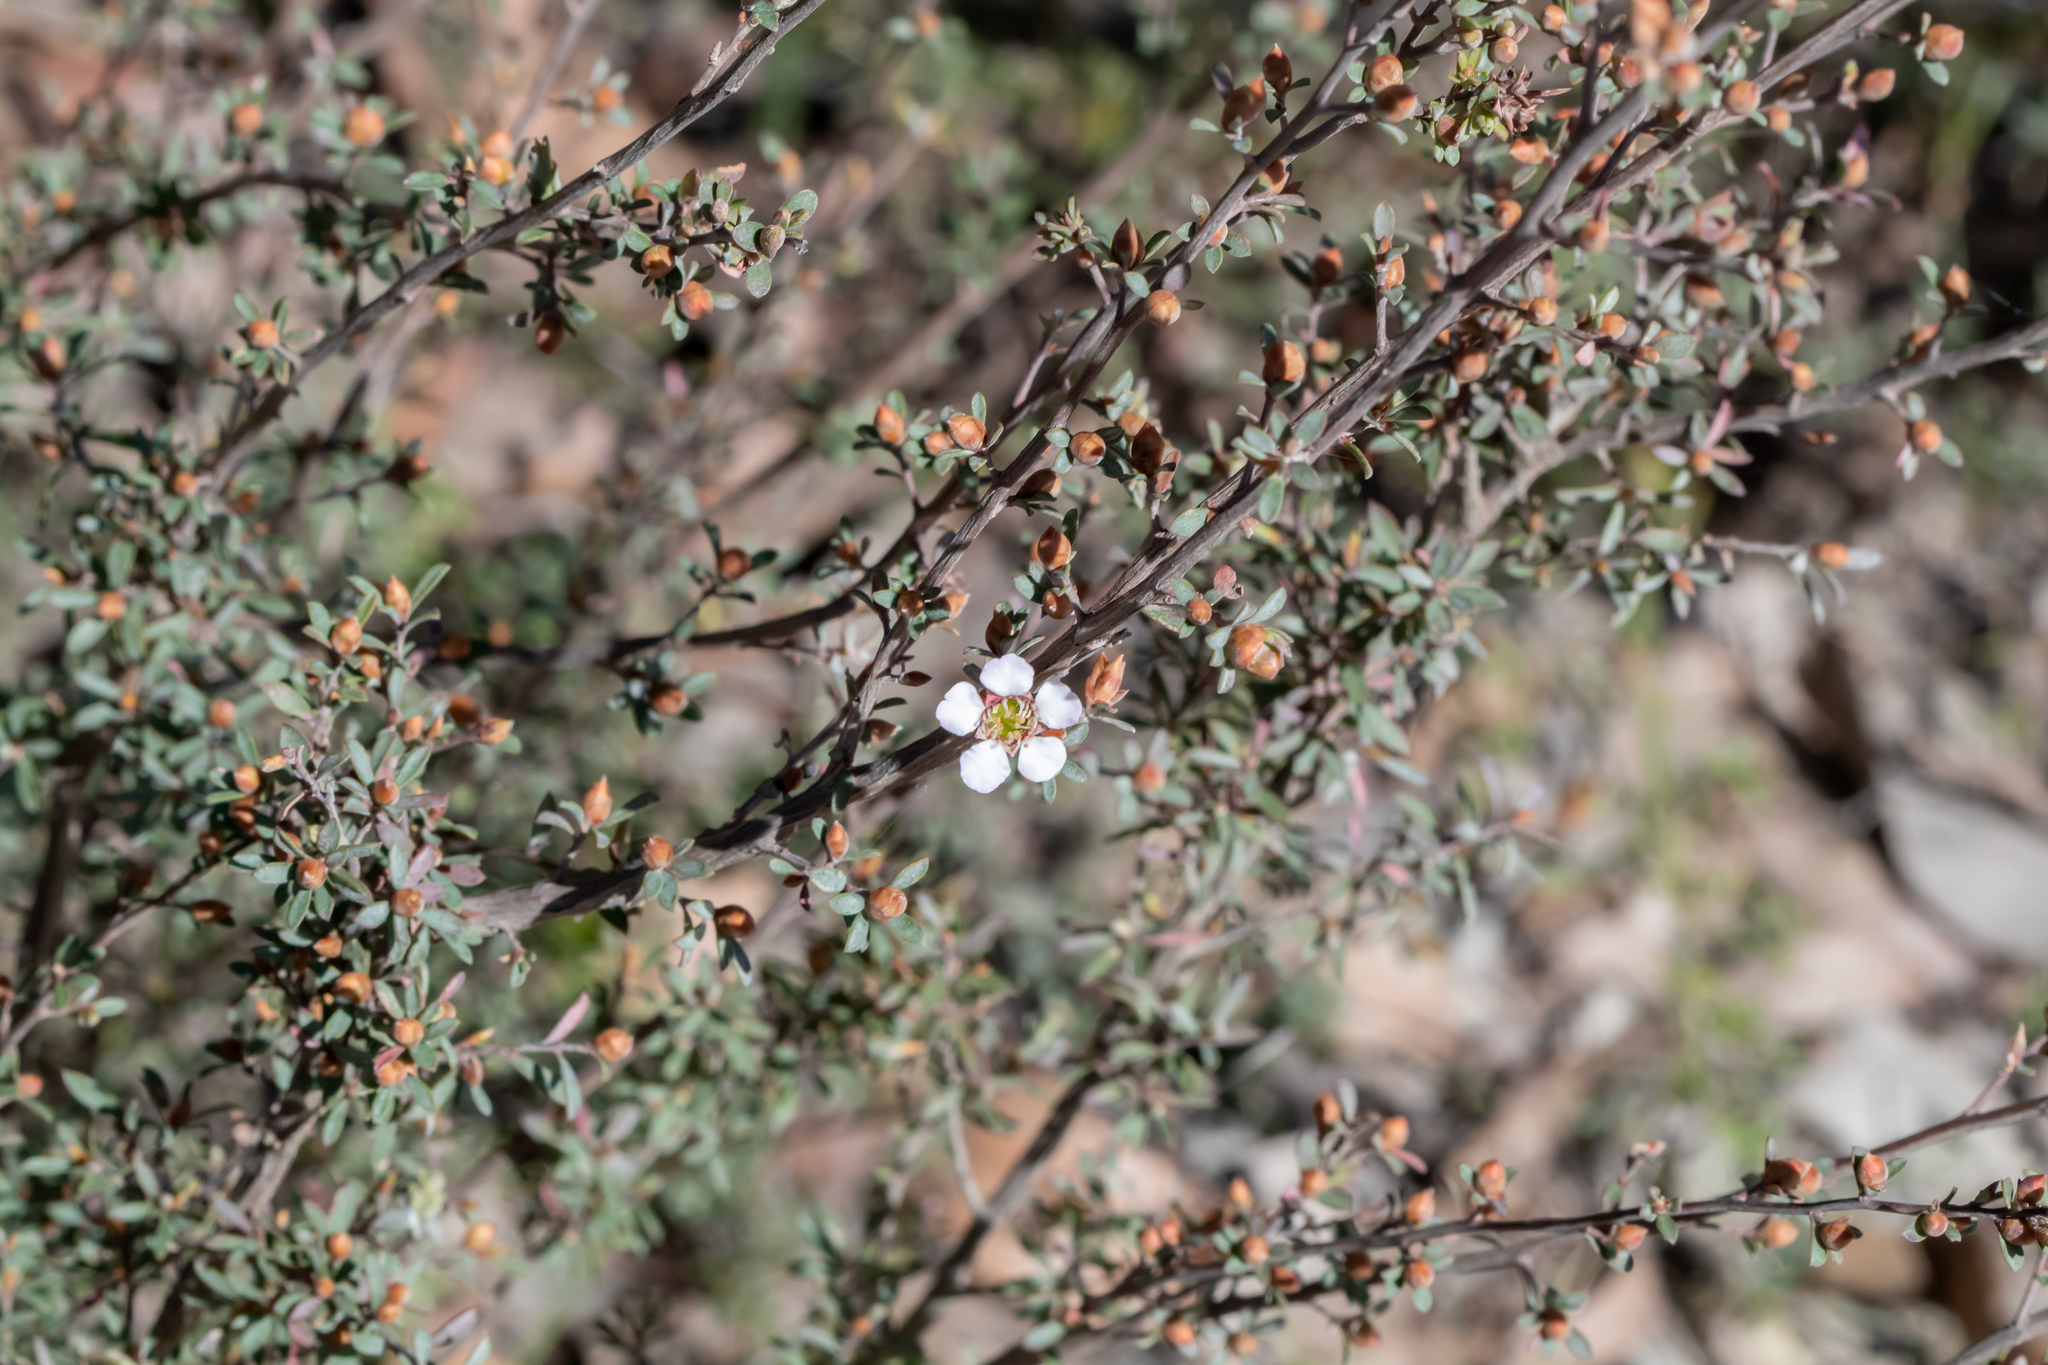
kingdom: Plantae
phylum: Tracheophyta
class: Magnoliopsida
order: Myrtales
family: Myrtaceae
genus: Leptospermum
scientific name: Leptospermum myrsinoides
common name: Heath teatree
